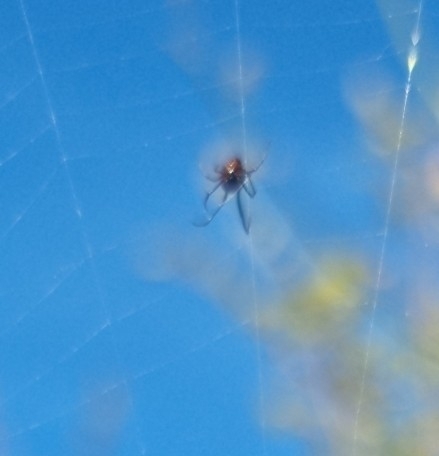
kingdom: Animalia
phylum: Arthropoda
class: Arachnida
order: Araneae
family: Araneidae
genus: Argiope
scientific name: Argiope bruennichi
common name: Wasp spider
